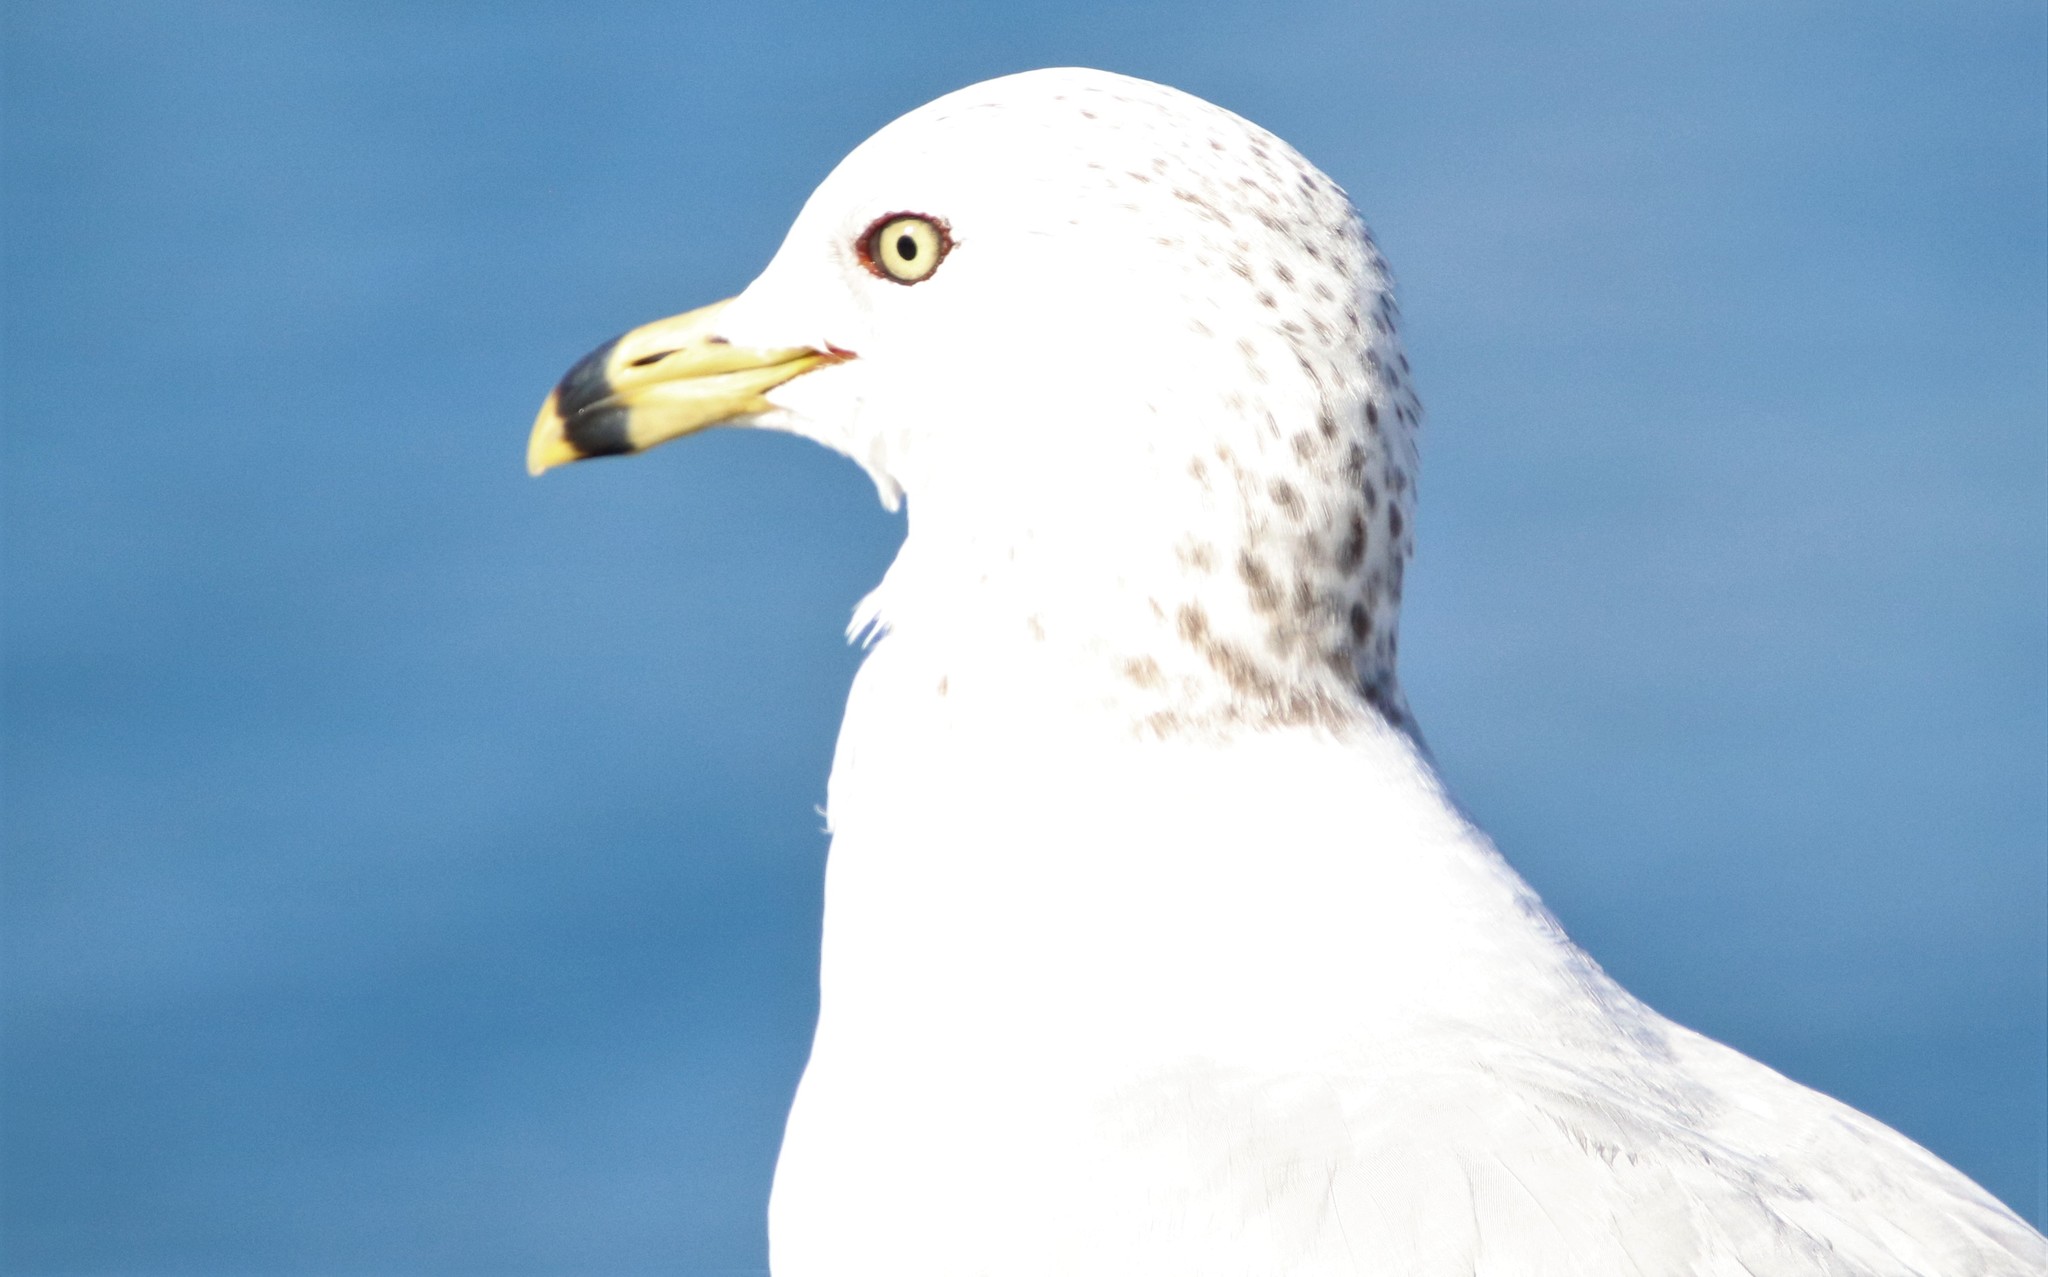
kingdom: Animalia
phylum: Chordata
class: Aves
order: Charadriiformes
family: Laridae
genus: Larus
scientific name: Larus delawarensis
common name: Ring-billed gull
